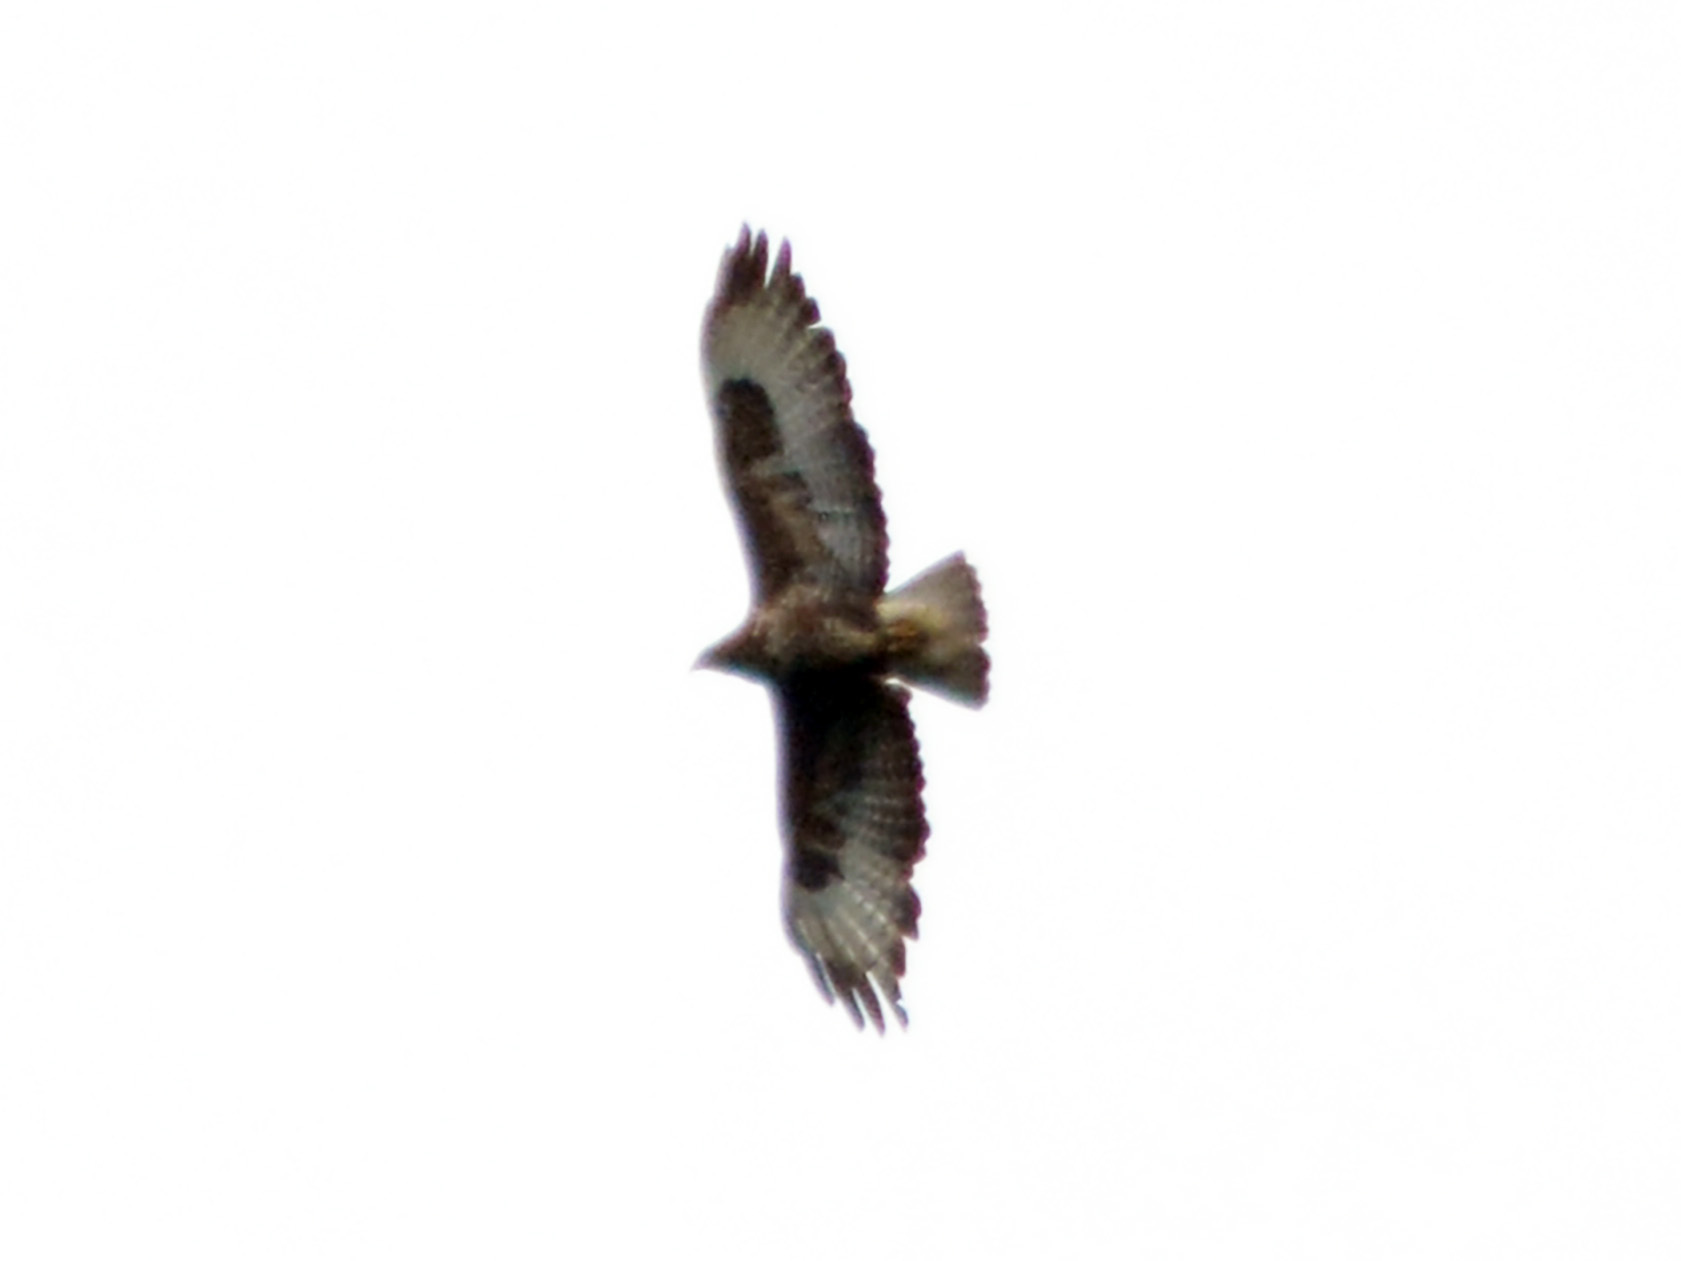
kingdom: Animalia
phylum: Chordata
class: Aves
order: Accipitriformes
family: Accipitridae
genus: Buteo
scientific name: Buteo buteo
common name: Common buzzard
